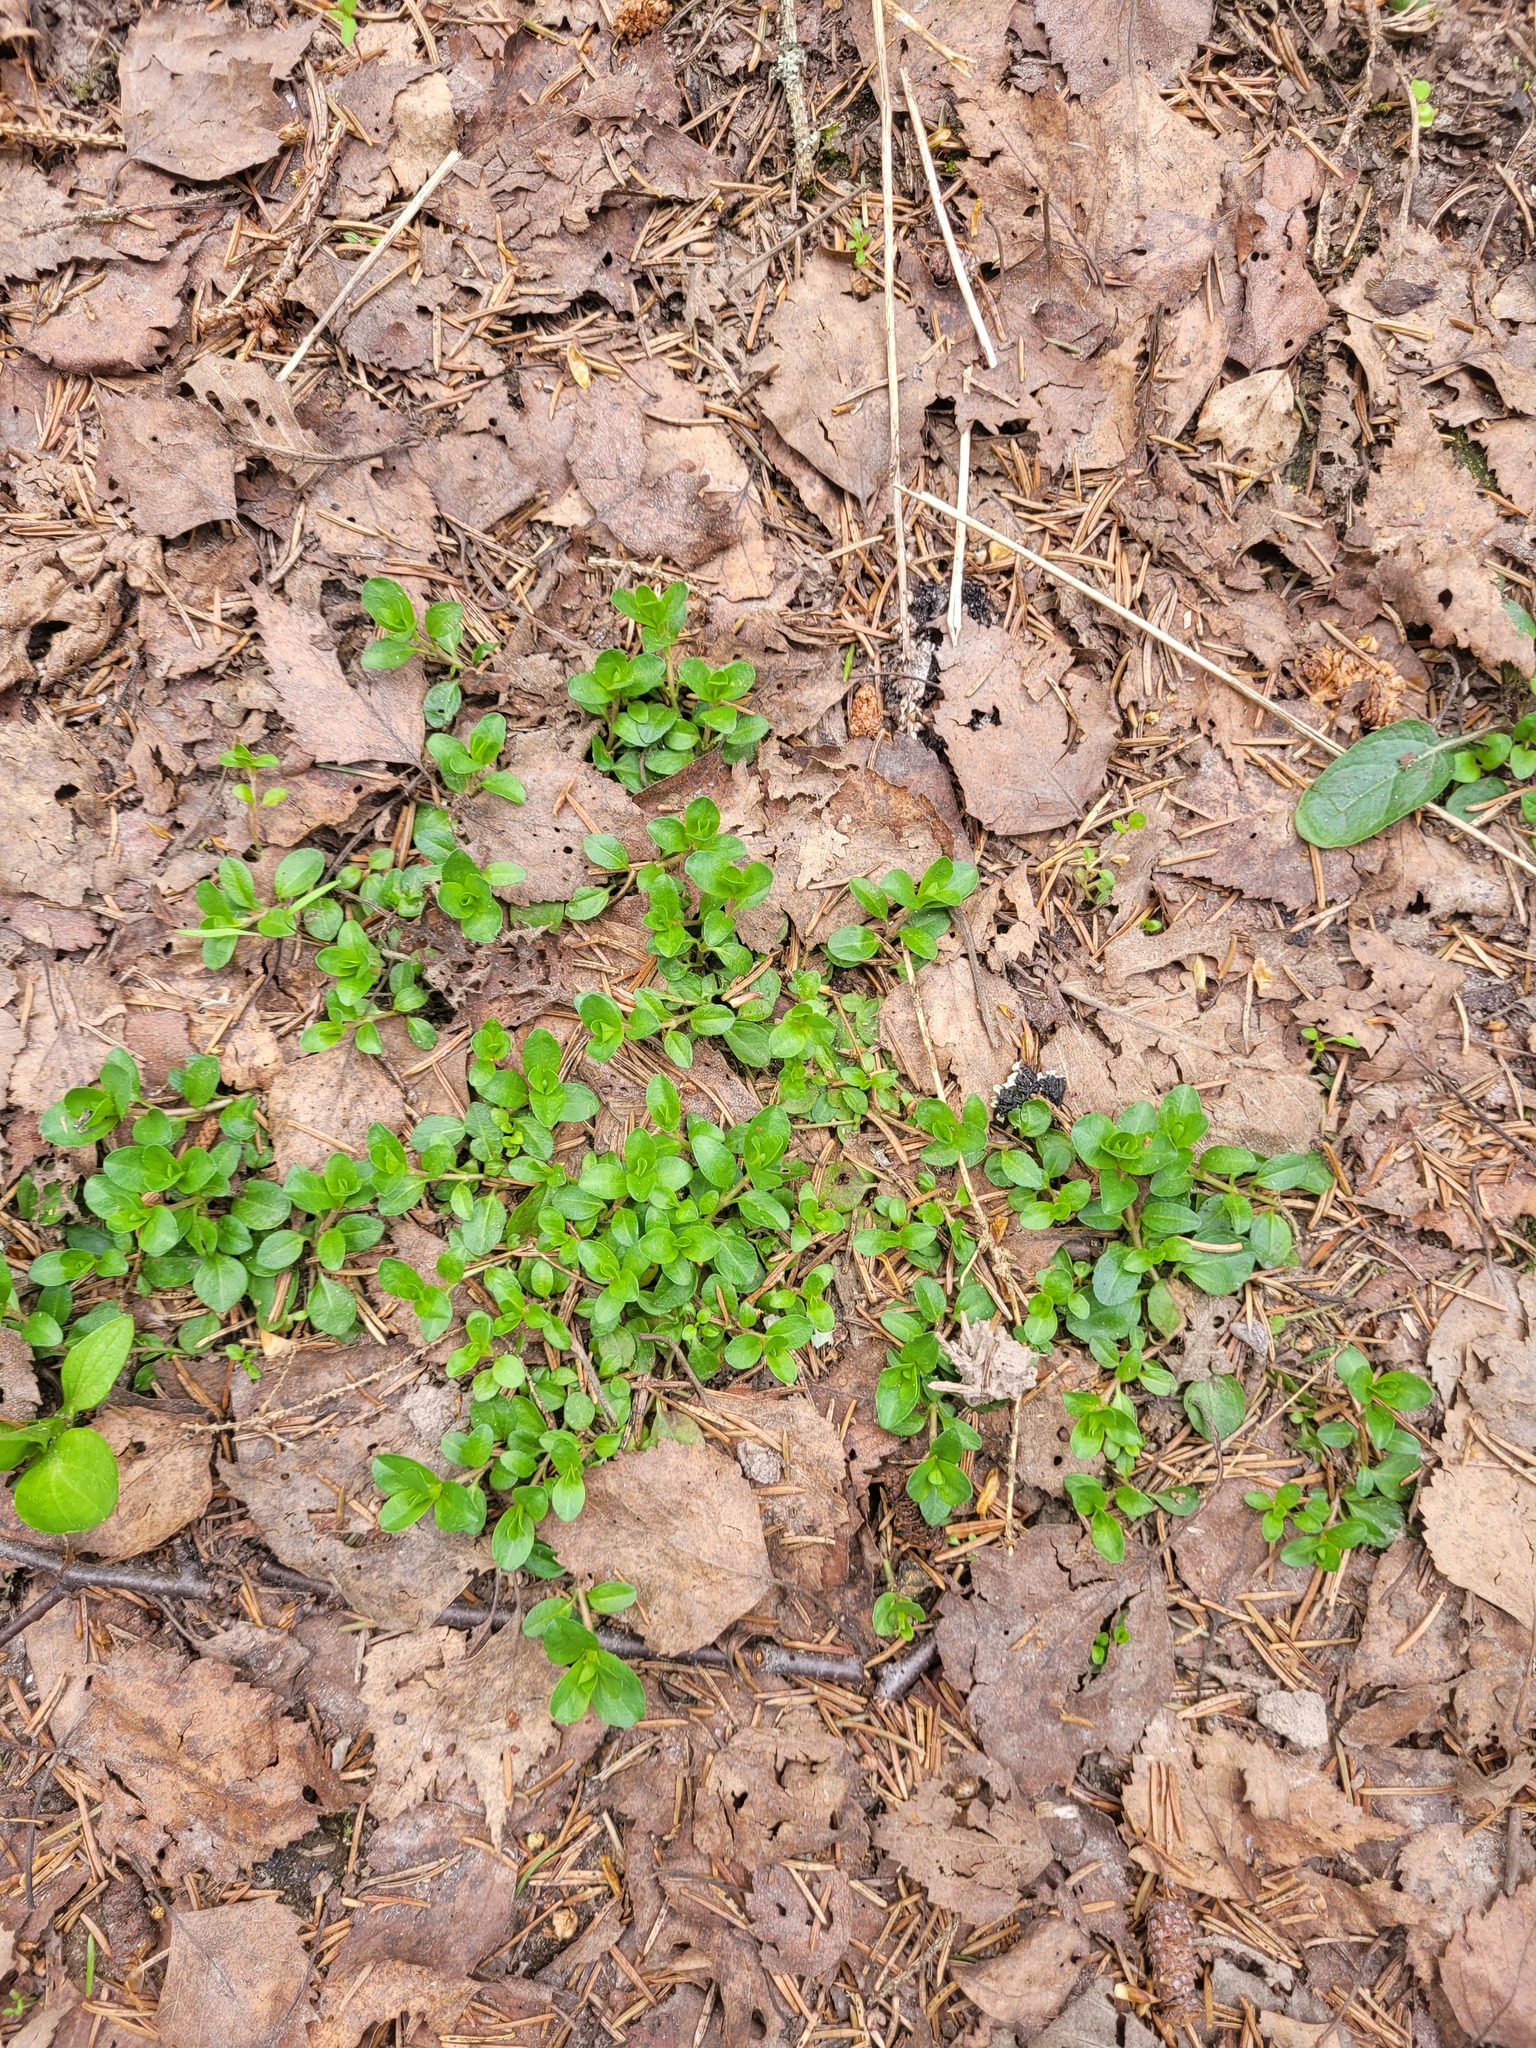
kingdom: Plantae
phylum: Tracheophyta
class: Magnoliopsida
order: Lamiales
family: Plantaginaceae
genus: Veronica
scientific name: Veronica serpyllifolia
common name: Thyme-leaved speedwell
